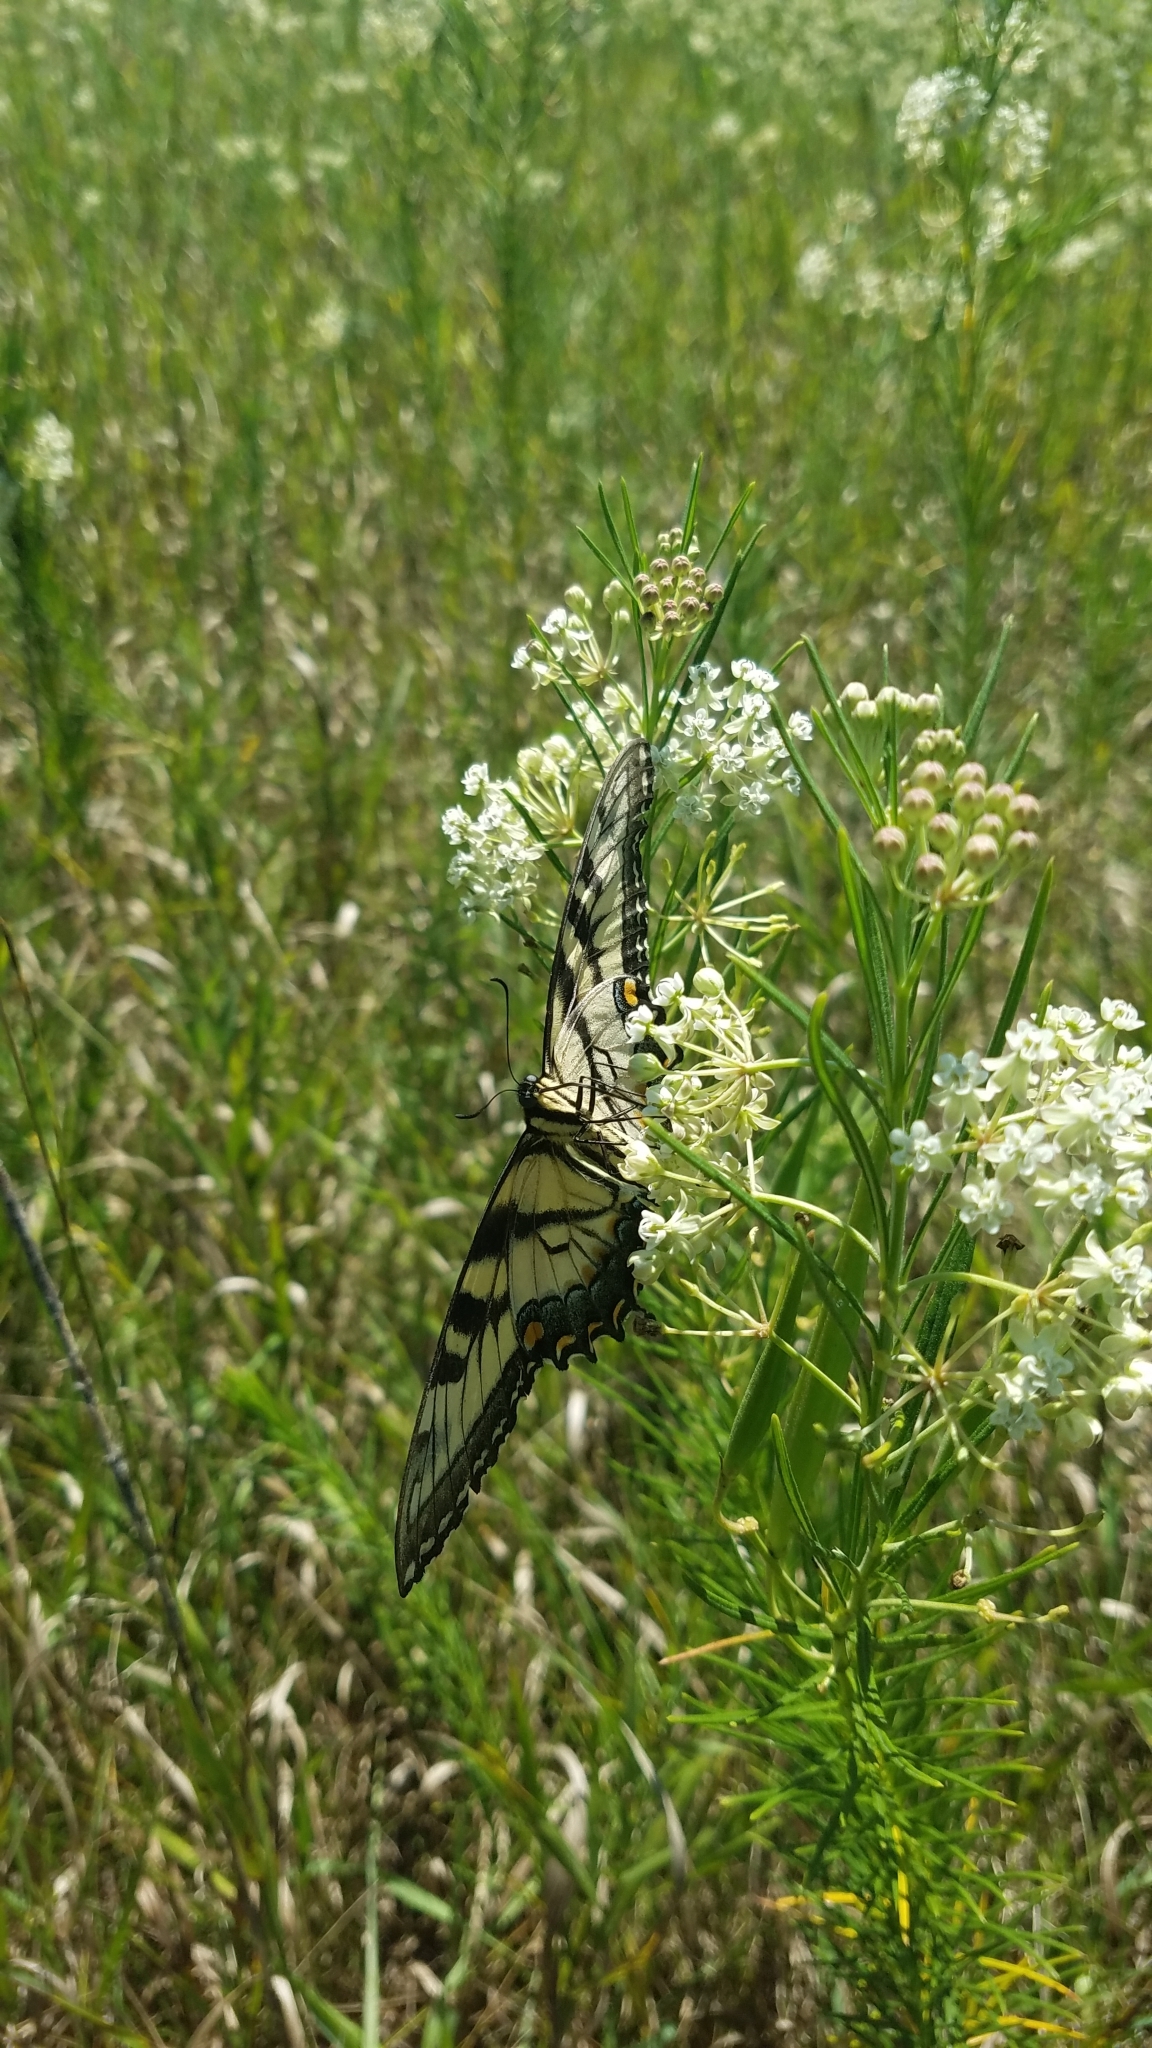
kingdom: Animalia
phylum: Arthropoda
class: Insecta
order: Lepidoptera
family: Papilionidae
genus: Papilio
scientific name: Papilio glaucus
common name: Tiger swallowtail
